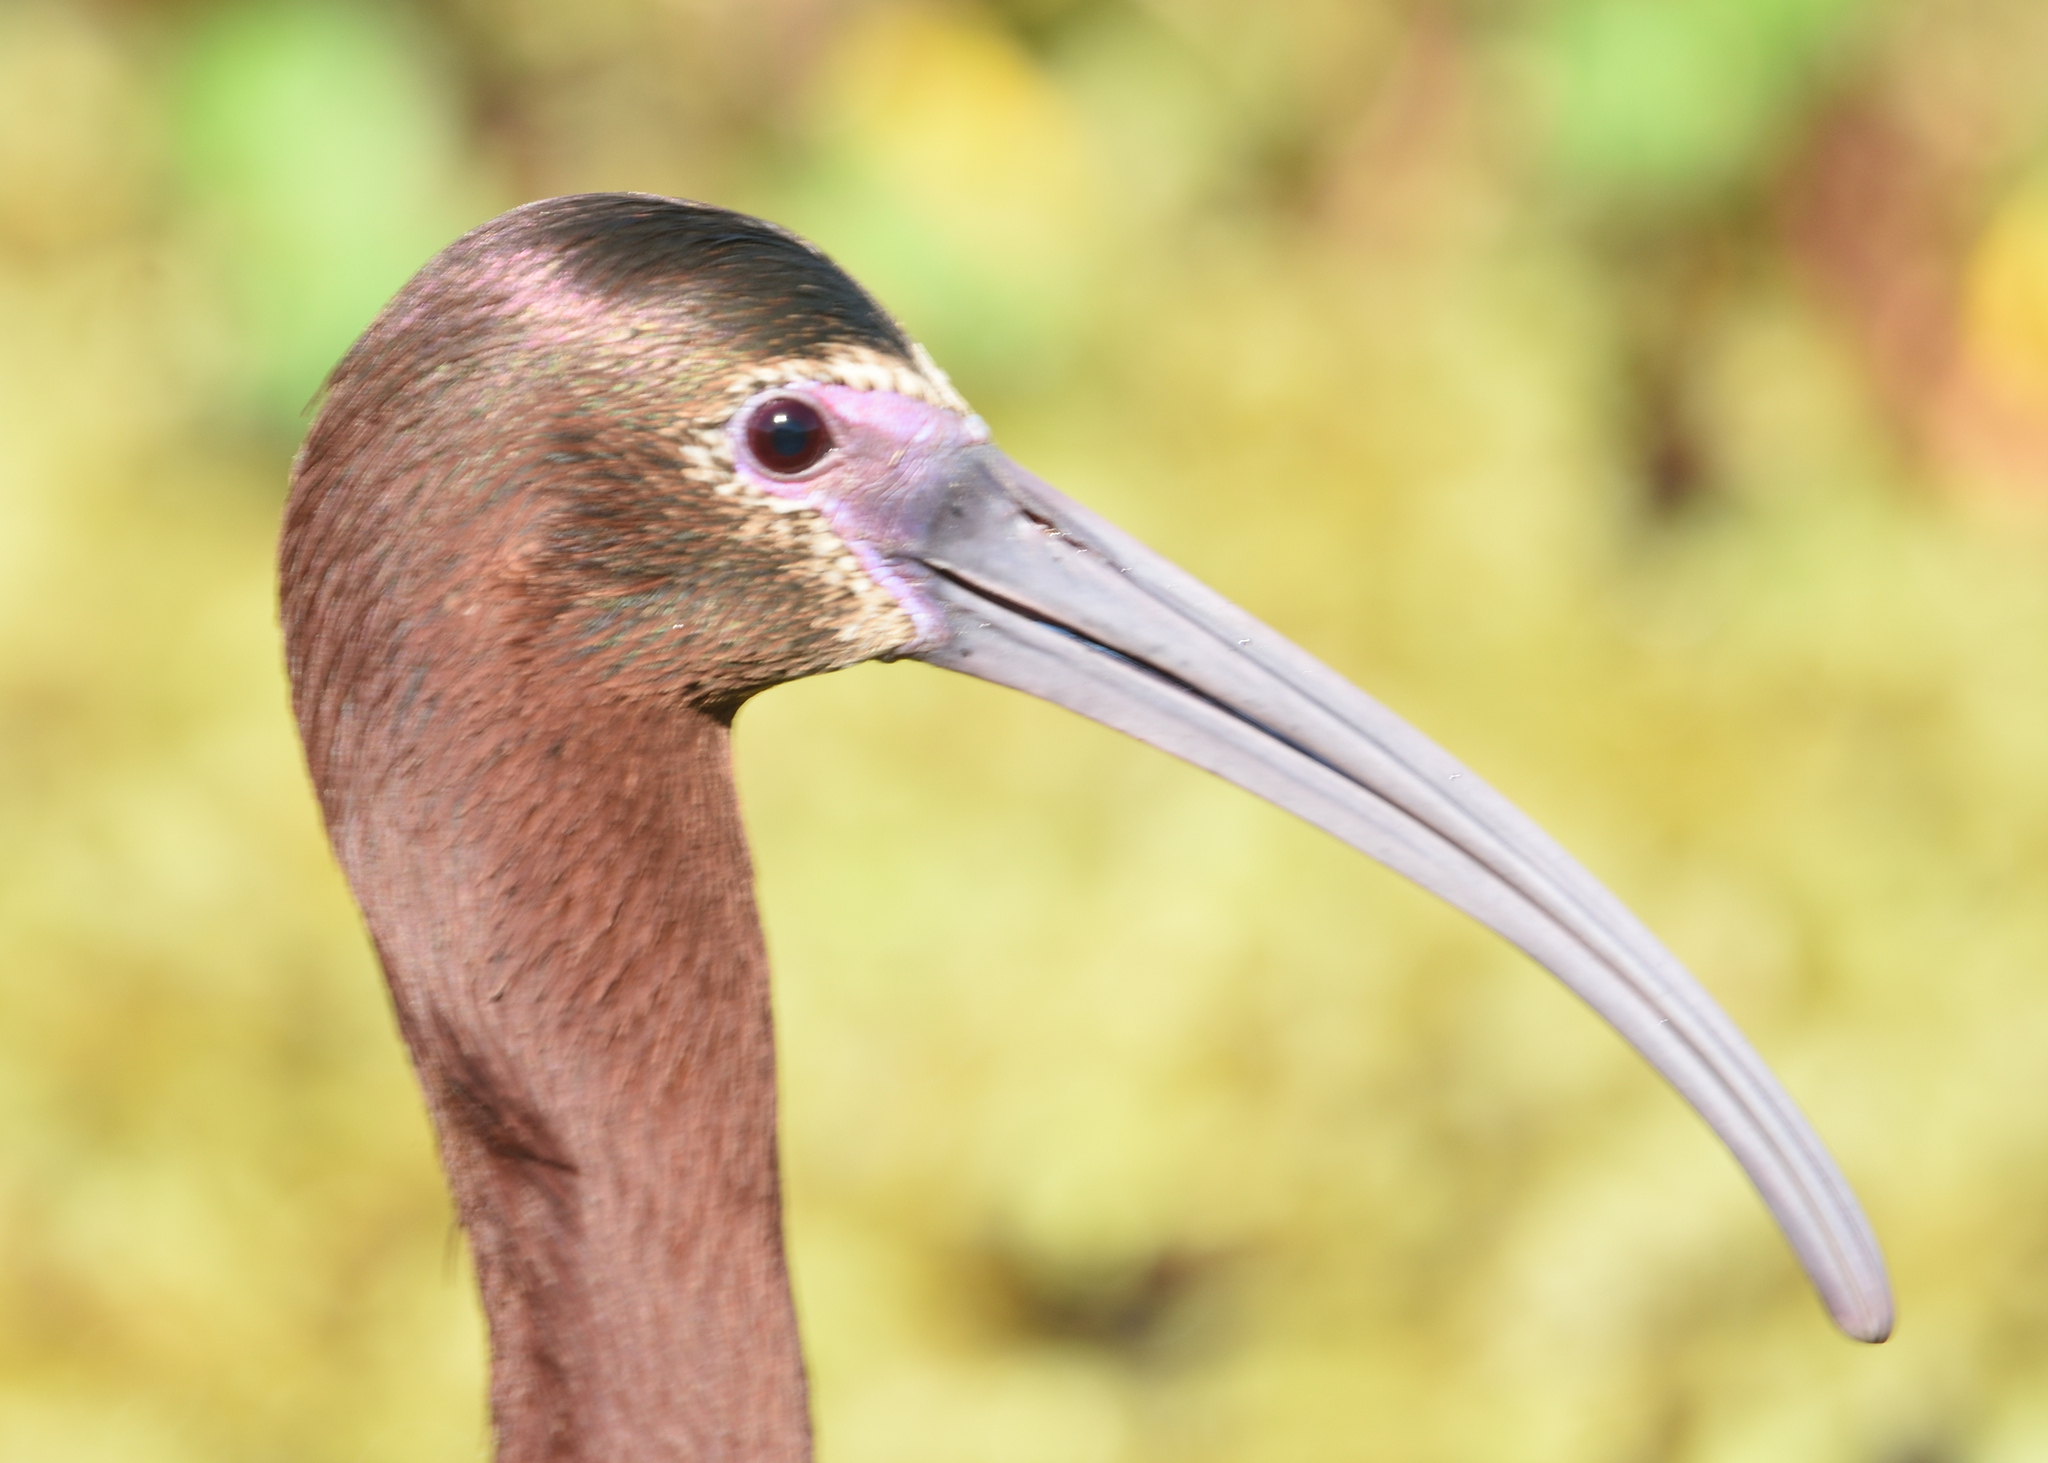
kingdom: Animalia
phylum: Chordata
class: Aves
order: Pelecaniformes
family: Threskiornithidae
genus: Plegadis
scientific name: Plegadis chihi
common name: White-faced ibis
